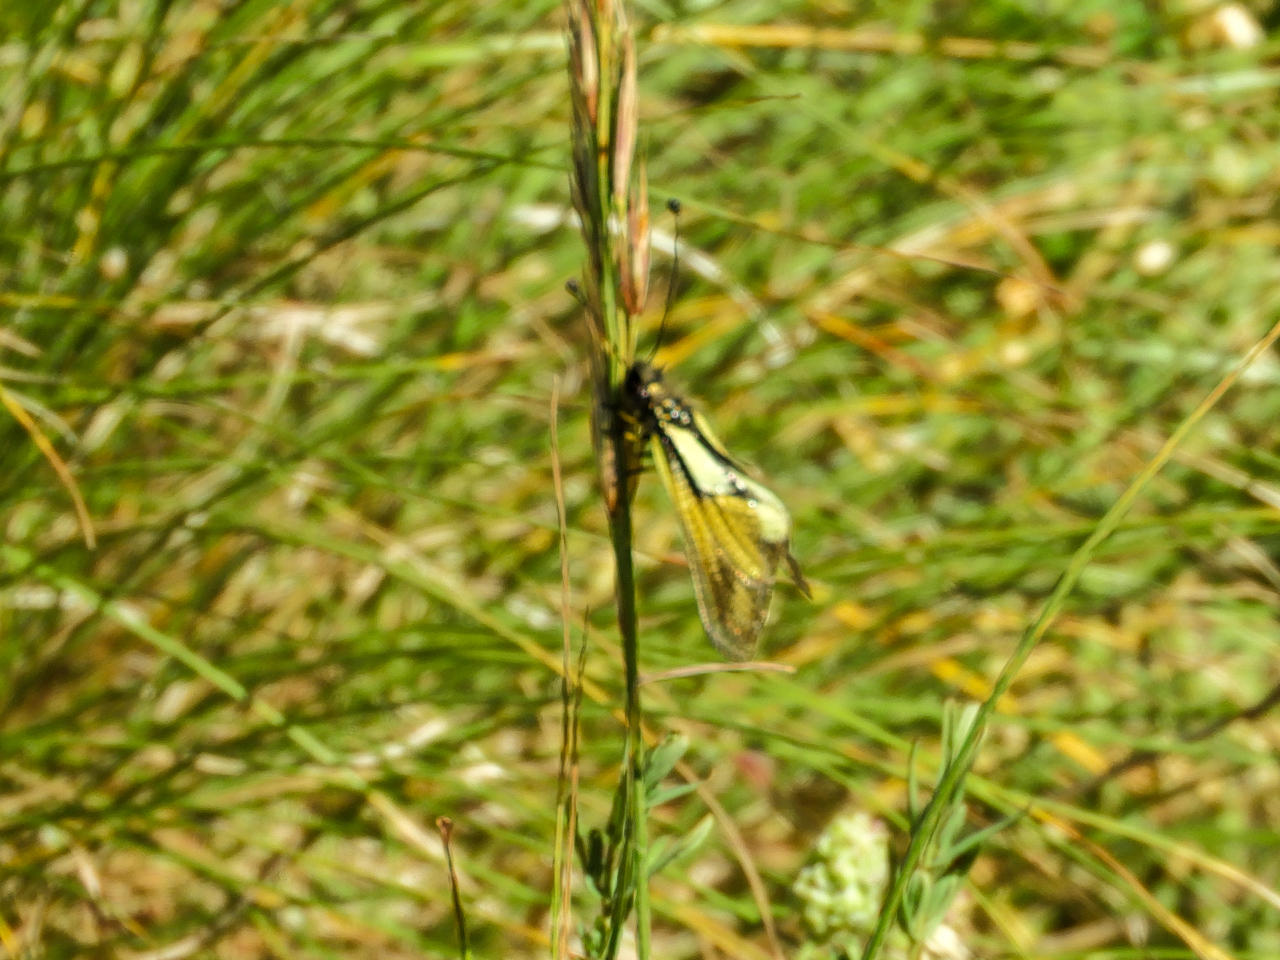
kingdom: Animalia
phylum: Arthropoda
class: Insecta
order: Neuroptera
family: Ascalaphidae
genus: Libelloides
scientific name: Libelloides coccajus
